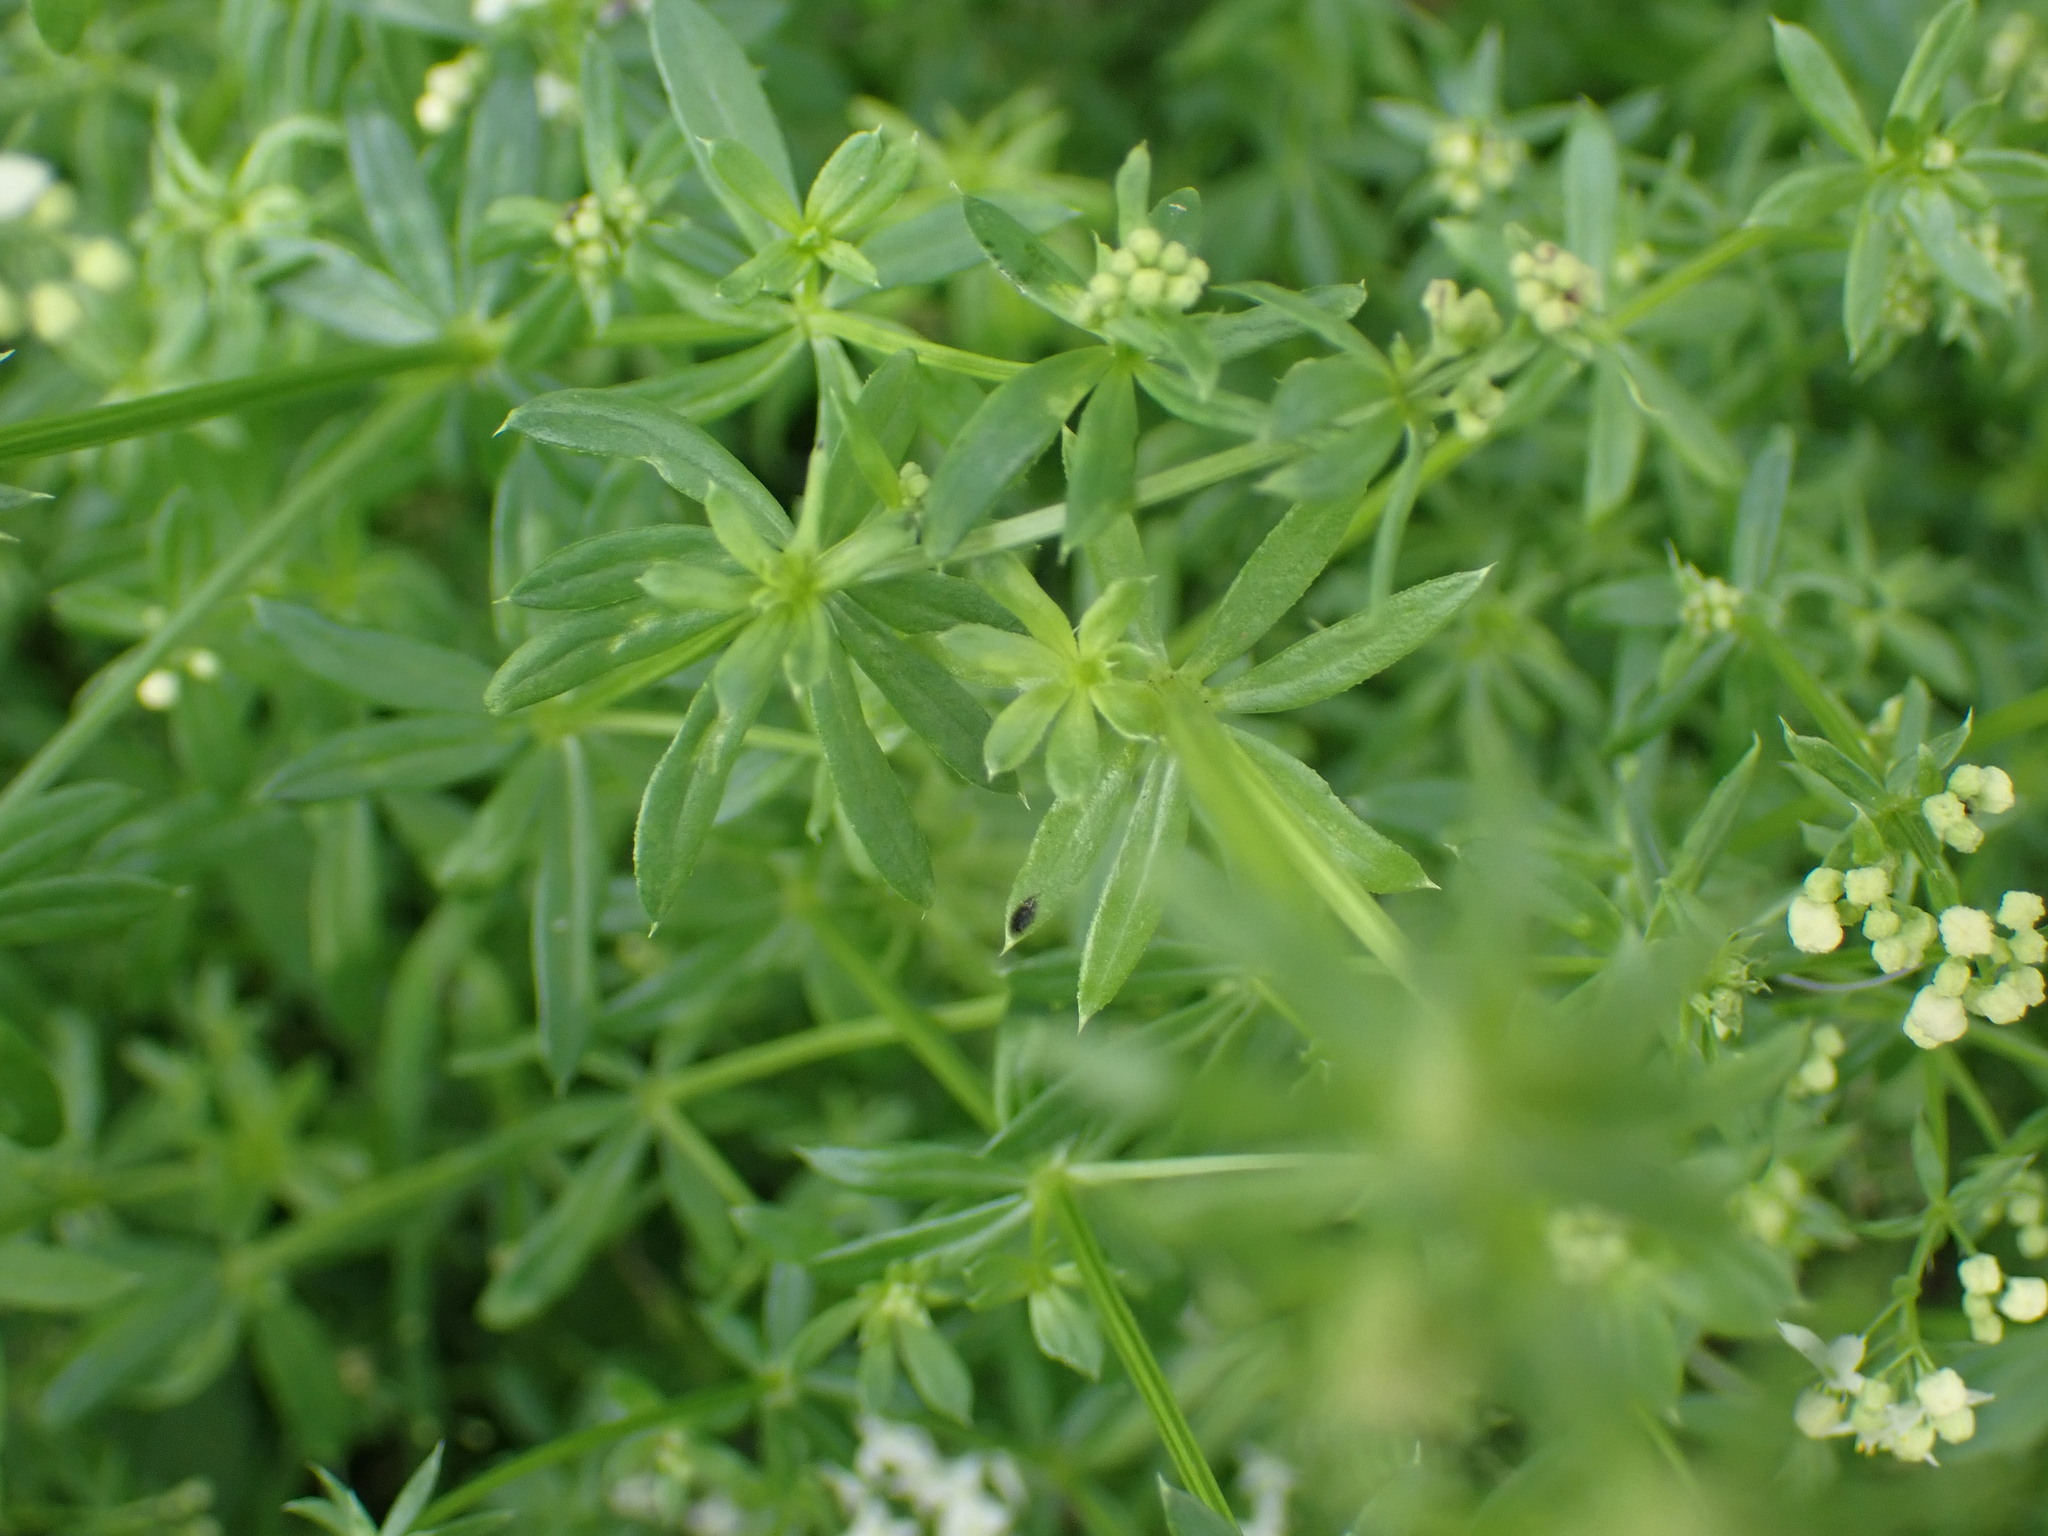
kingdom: Plantae
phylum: Tracheophyta
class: Magnoliopsida
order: Gentianales
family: Rubiaceae
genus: Galium
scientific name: Galium album
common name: White bedstraw
